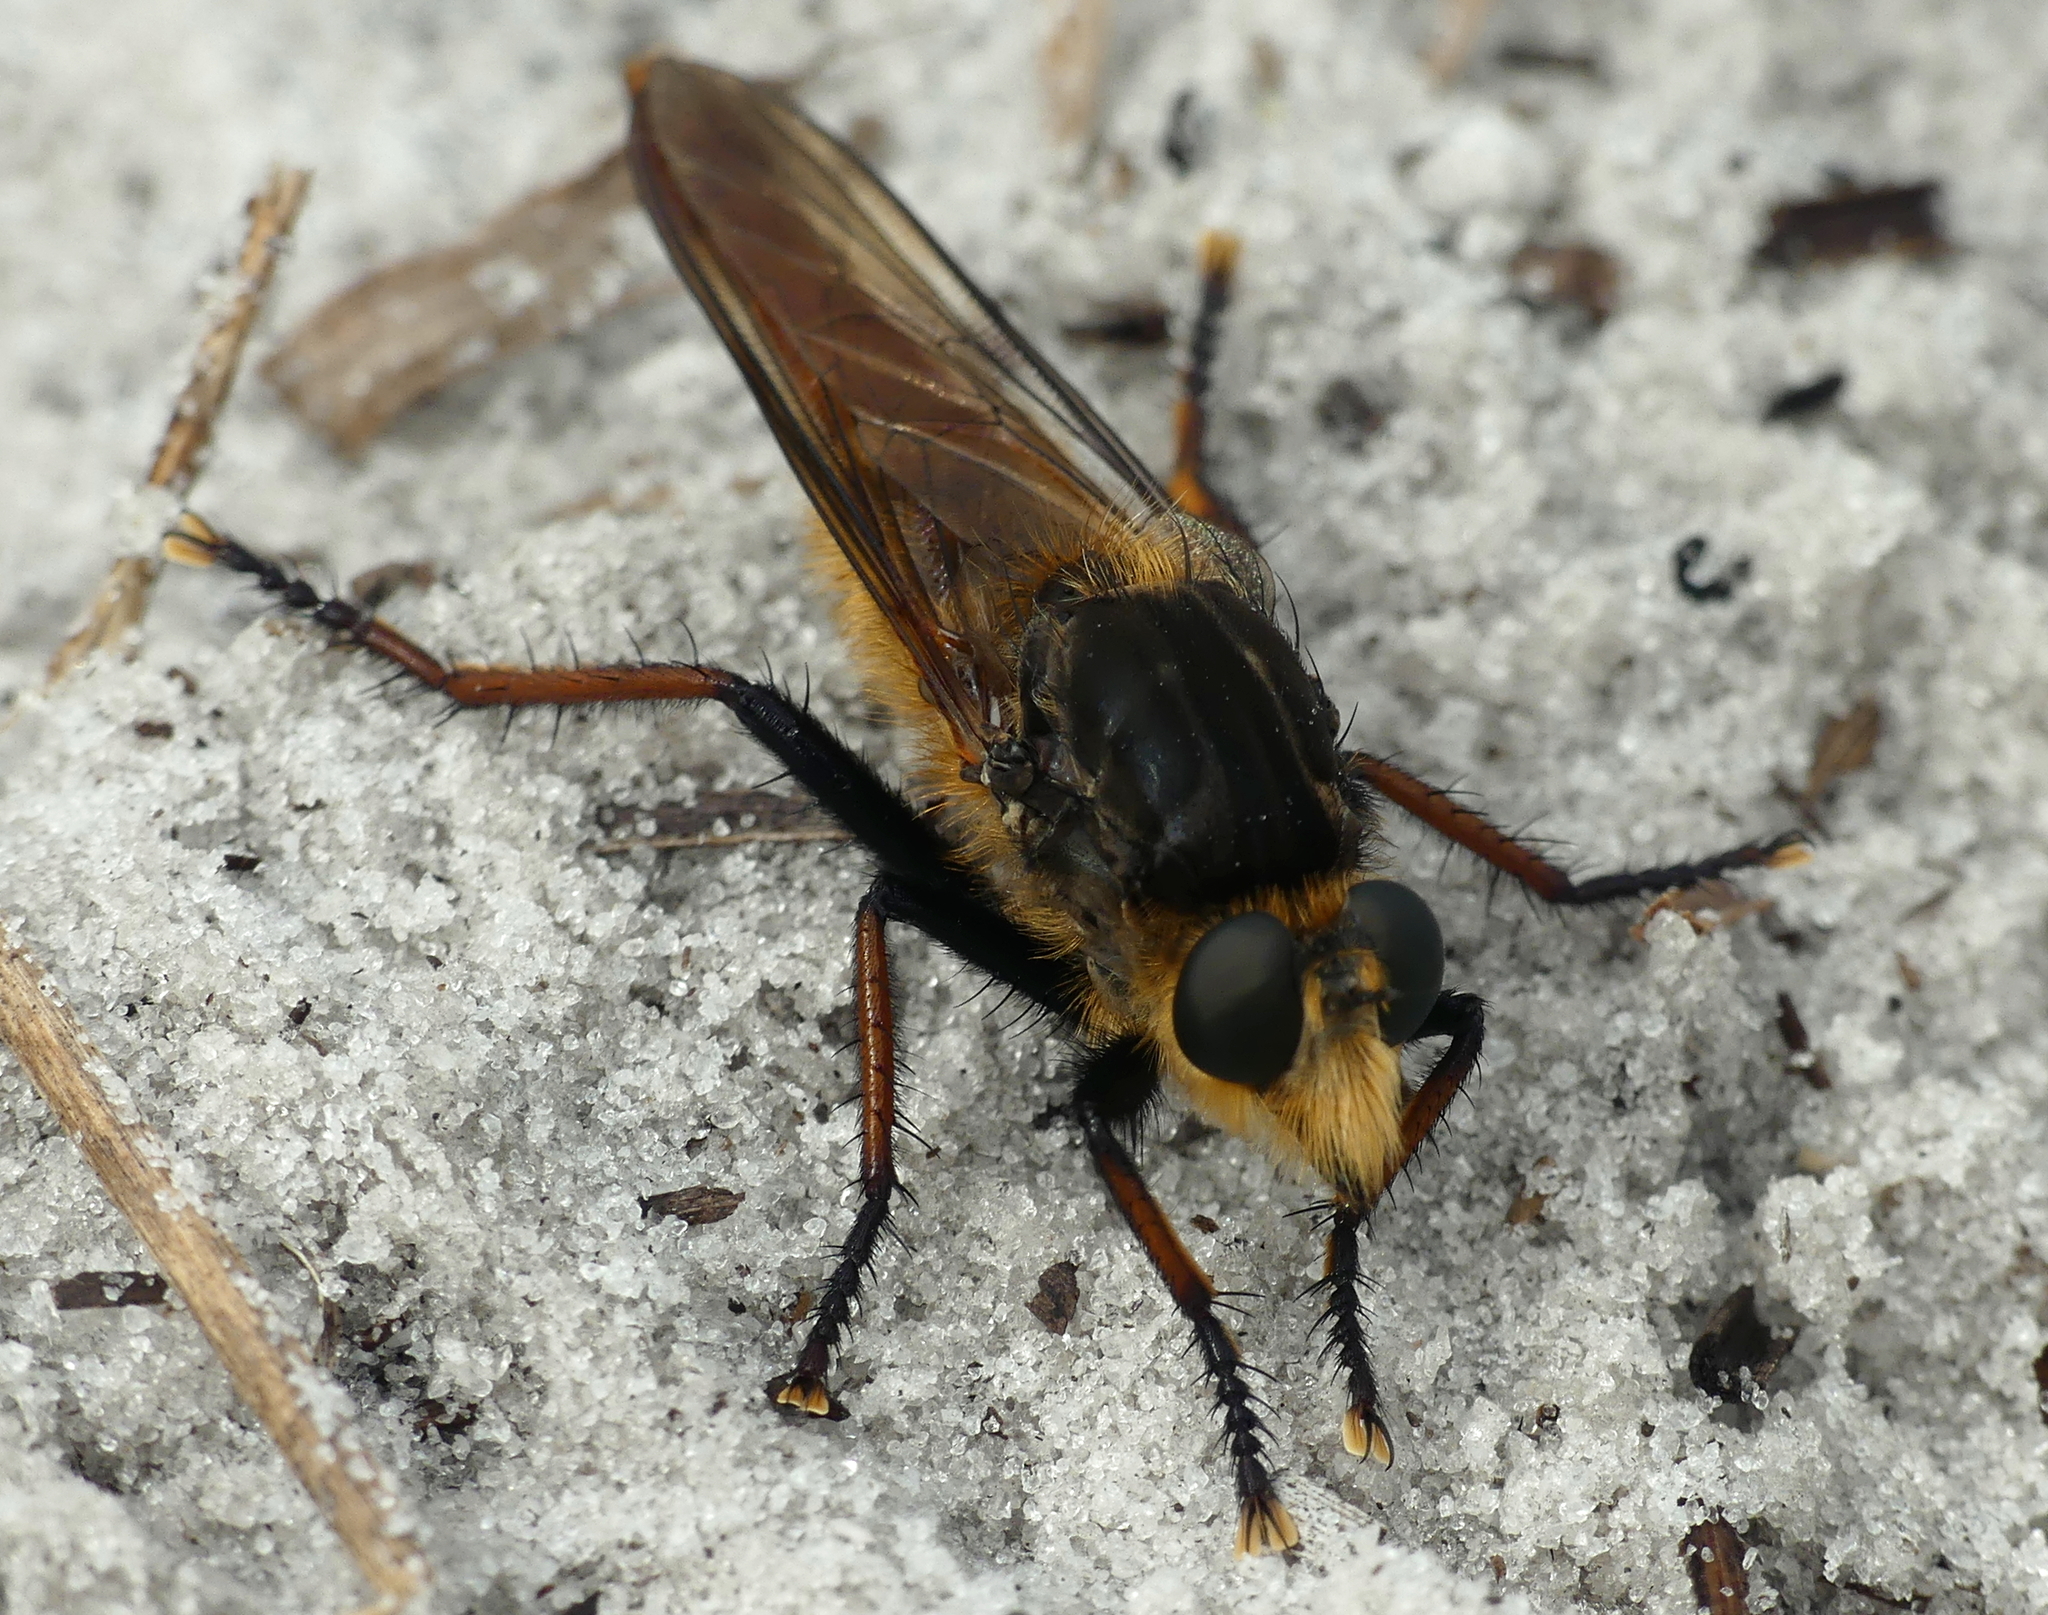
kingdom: Animalia
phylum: Arthropoda
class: Insecta
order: Diptera
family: Asilidae
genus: Proctacanthus
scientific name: Proctacanthus fulviventris
